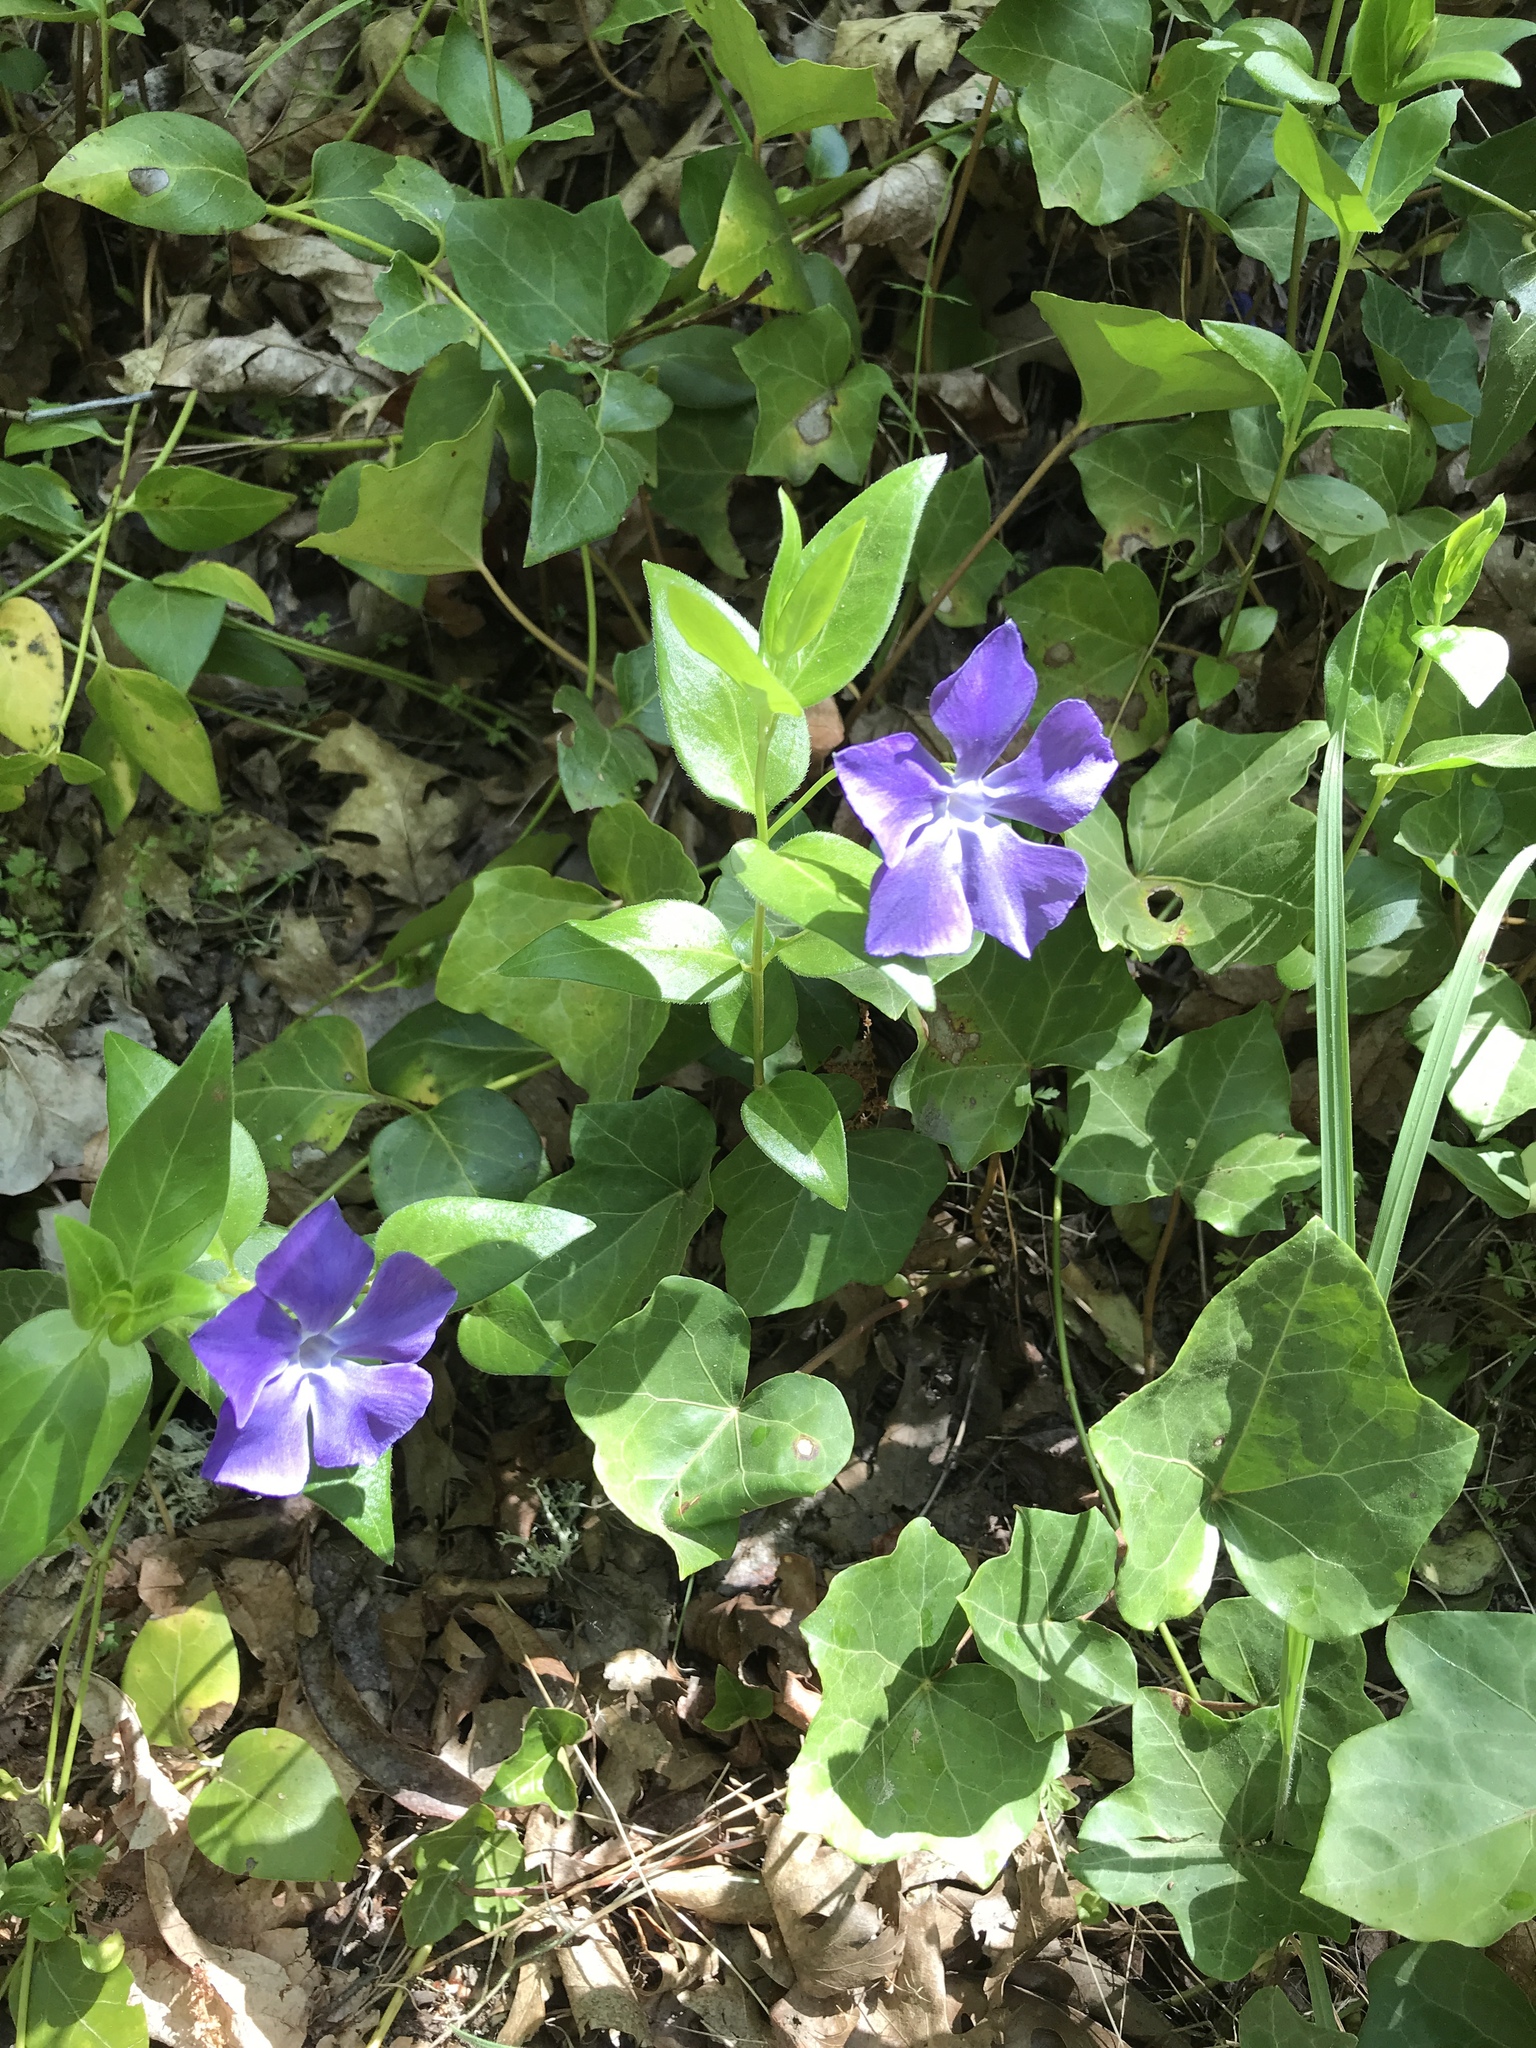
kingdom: Plantae
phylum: Tracheophyta
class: Magnoliopsida
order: Gentianales
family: Apocynaceae
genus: Vinca
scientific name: Vinca major
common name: Greater periwinkle
